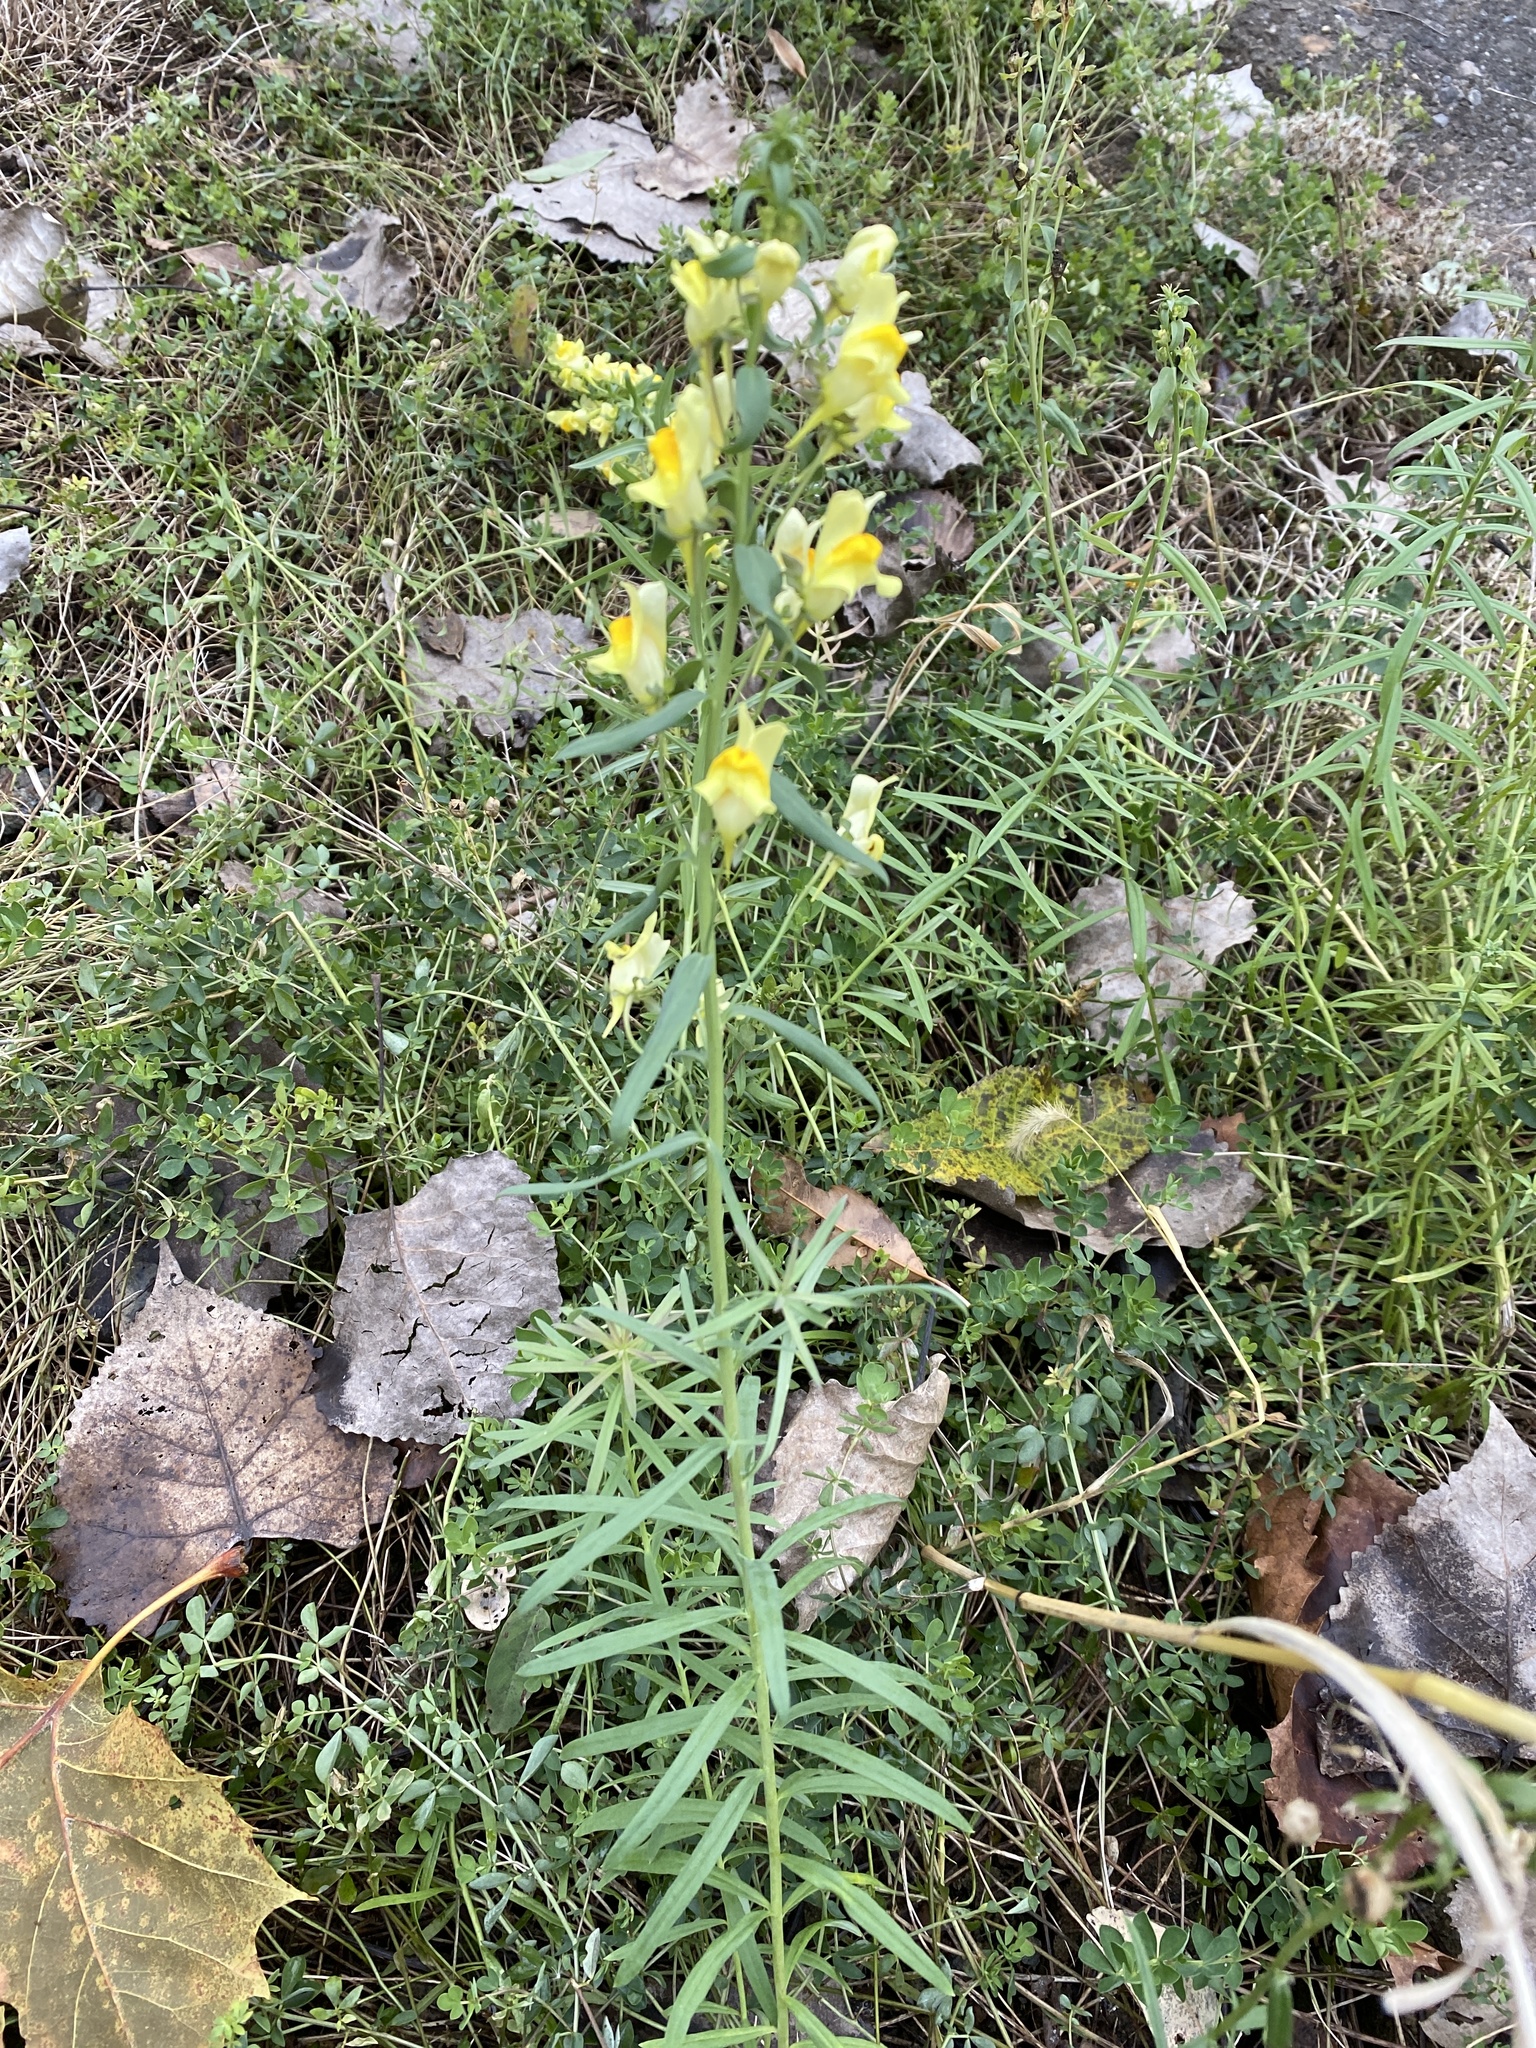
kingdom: Plantae
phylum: Tracheophyta
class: Magnoliopsida
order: Lamiales
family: Plantaginaceae
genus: Linaria
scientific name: Linaria vulgaris
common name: Butter and eggs
